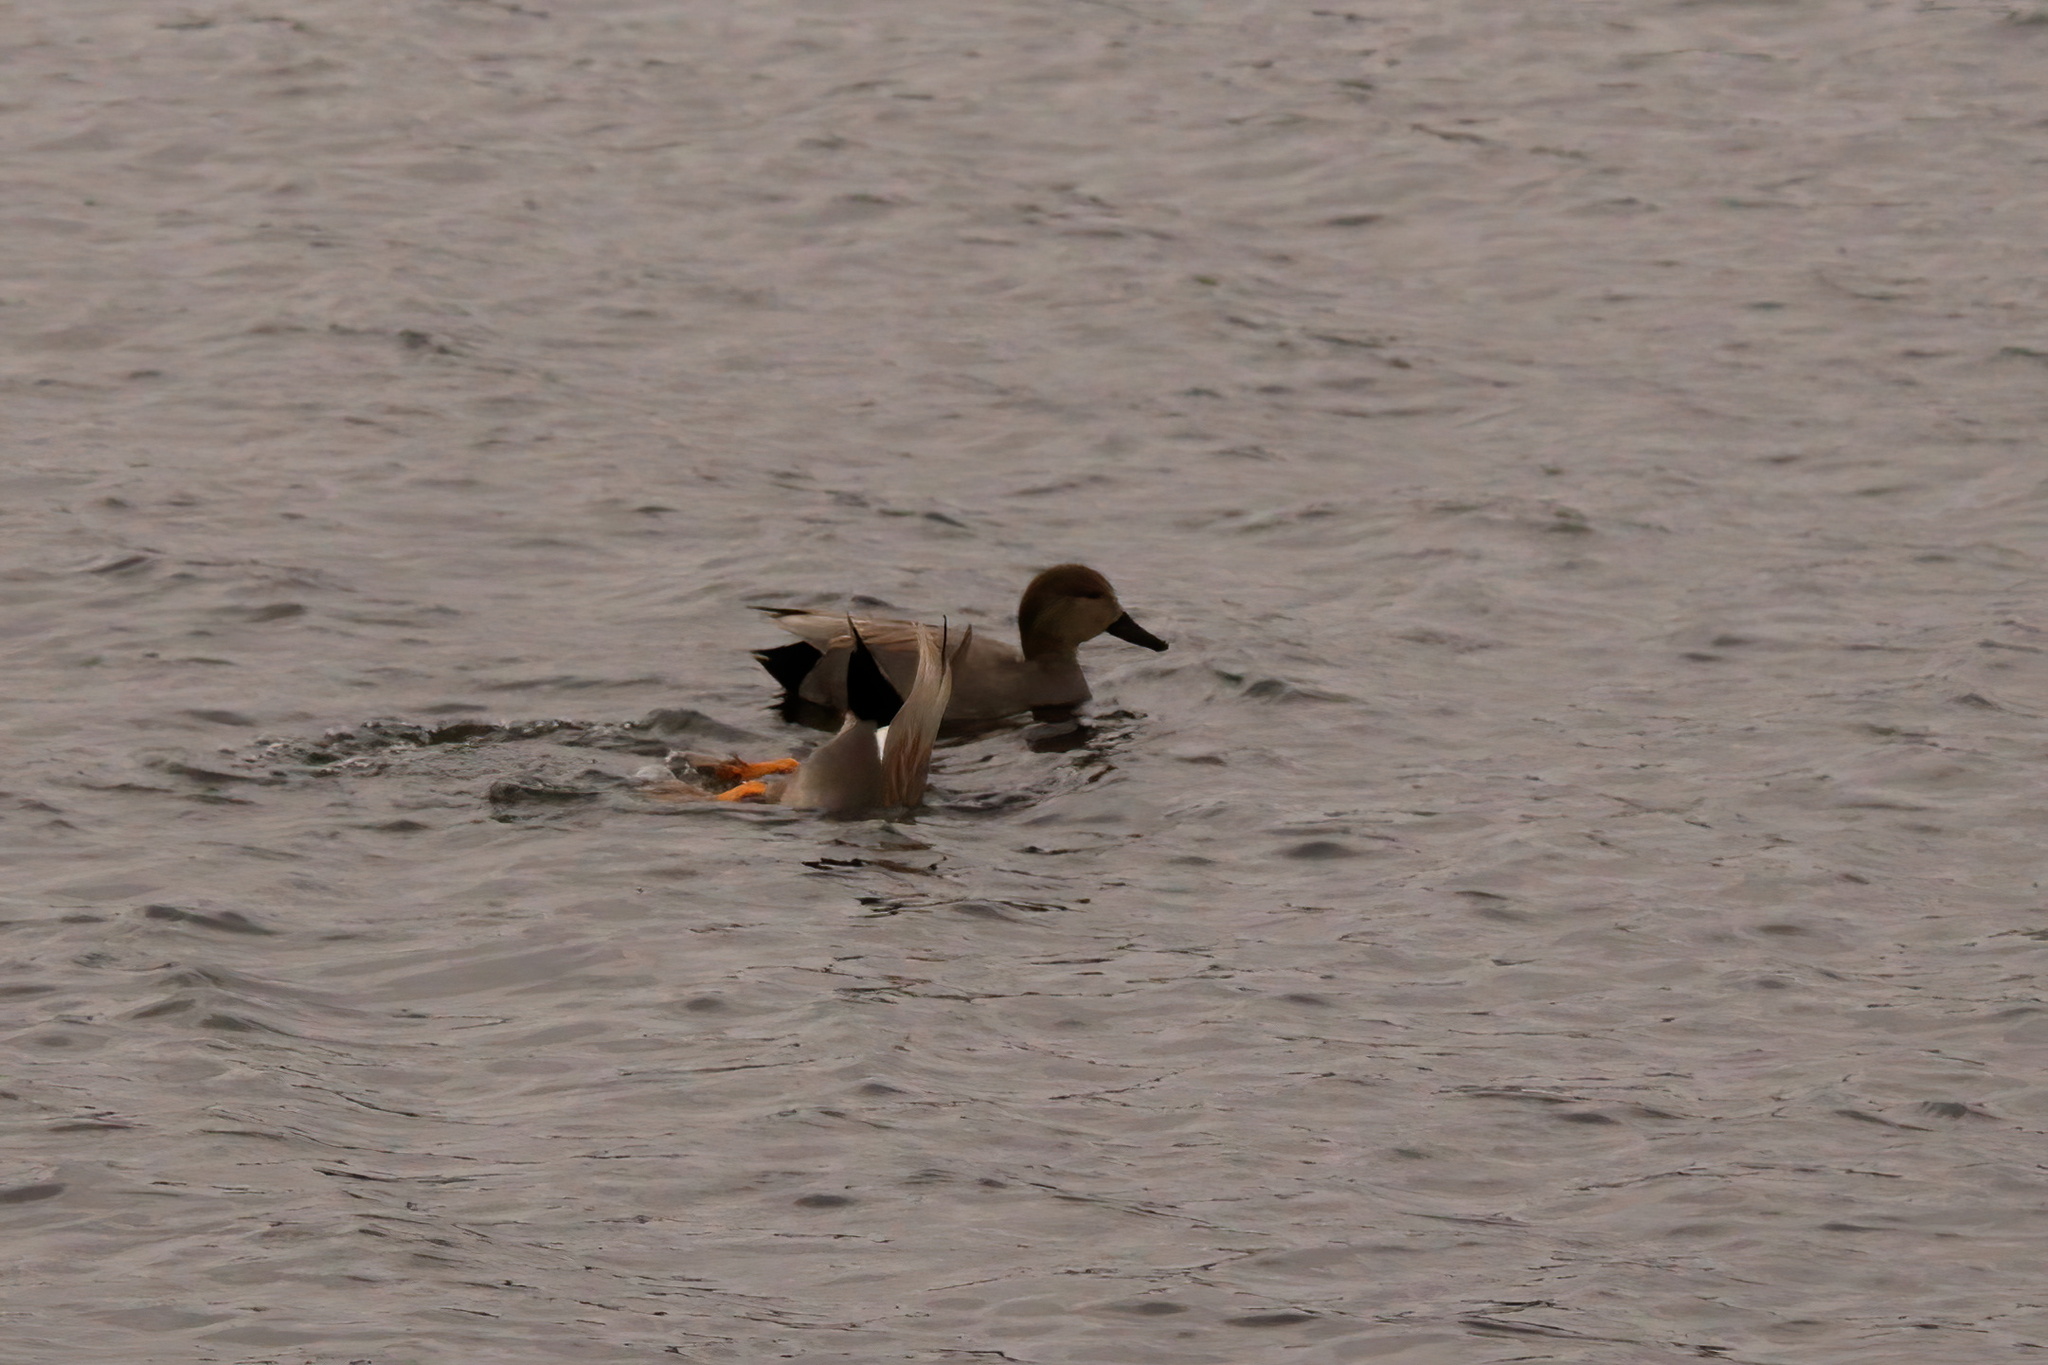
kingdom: Animalia
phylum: Chordata
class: Aves
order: Anseriformes
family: Anatidae
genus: Mareca
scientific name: Mareca strepera
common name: Gadwall
